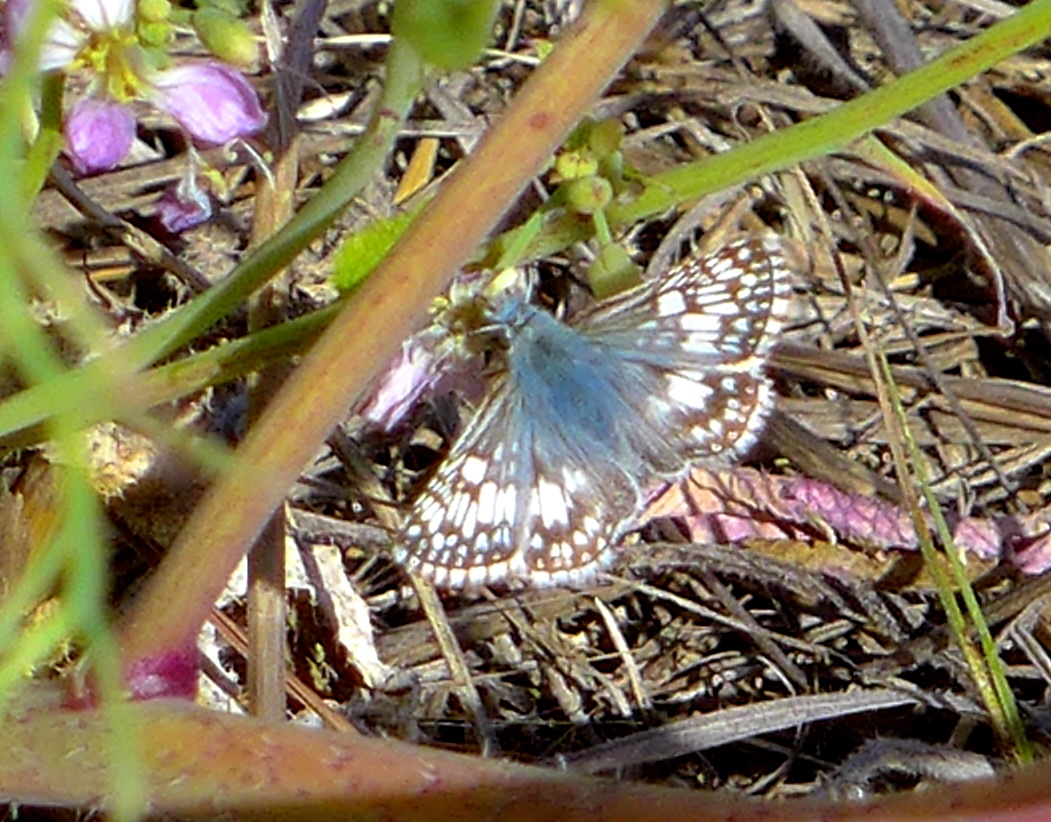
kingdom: Animalia
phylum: Arthropoda
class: Insecta
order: Lepidoptera
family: Hesperiidae
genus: Burnsius
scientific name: Burnsius communis
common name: Common checkered-skipper
